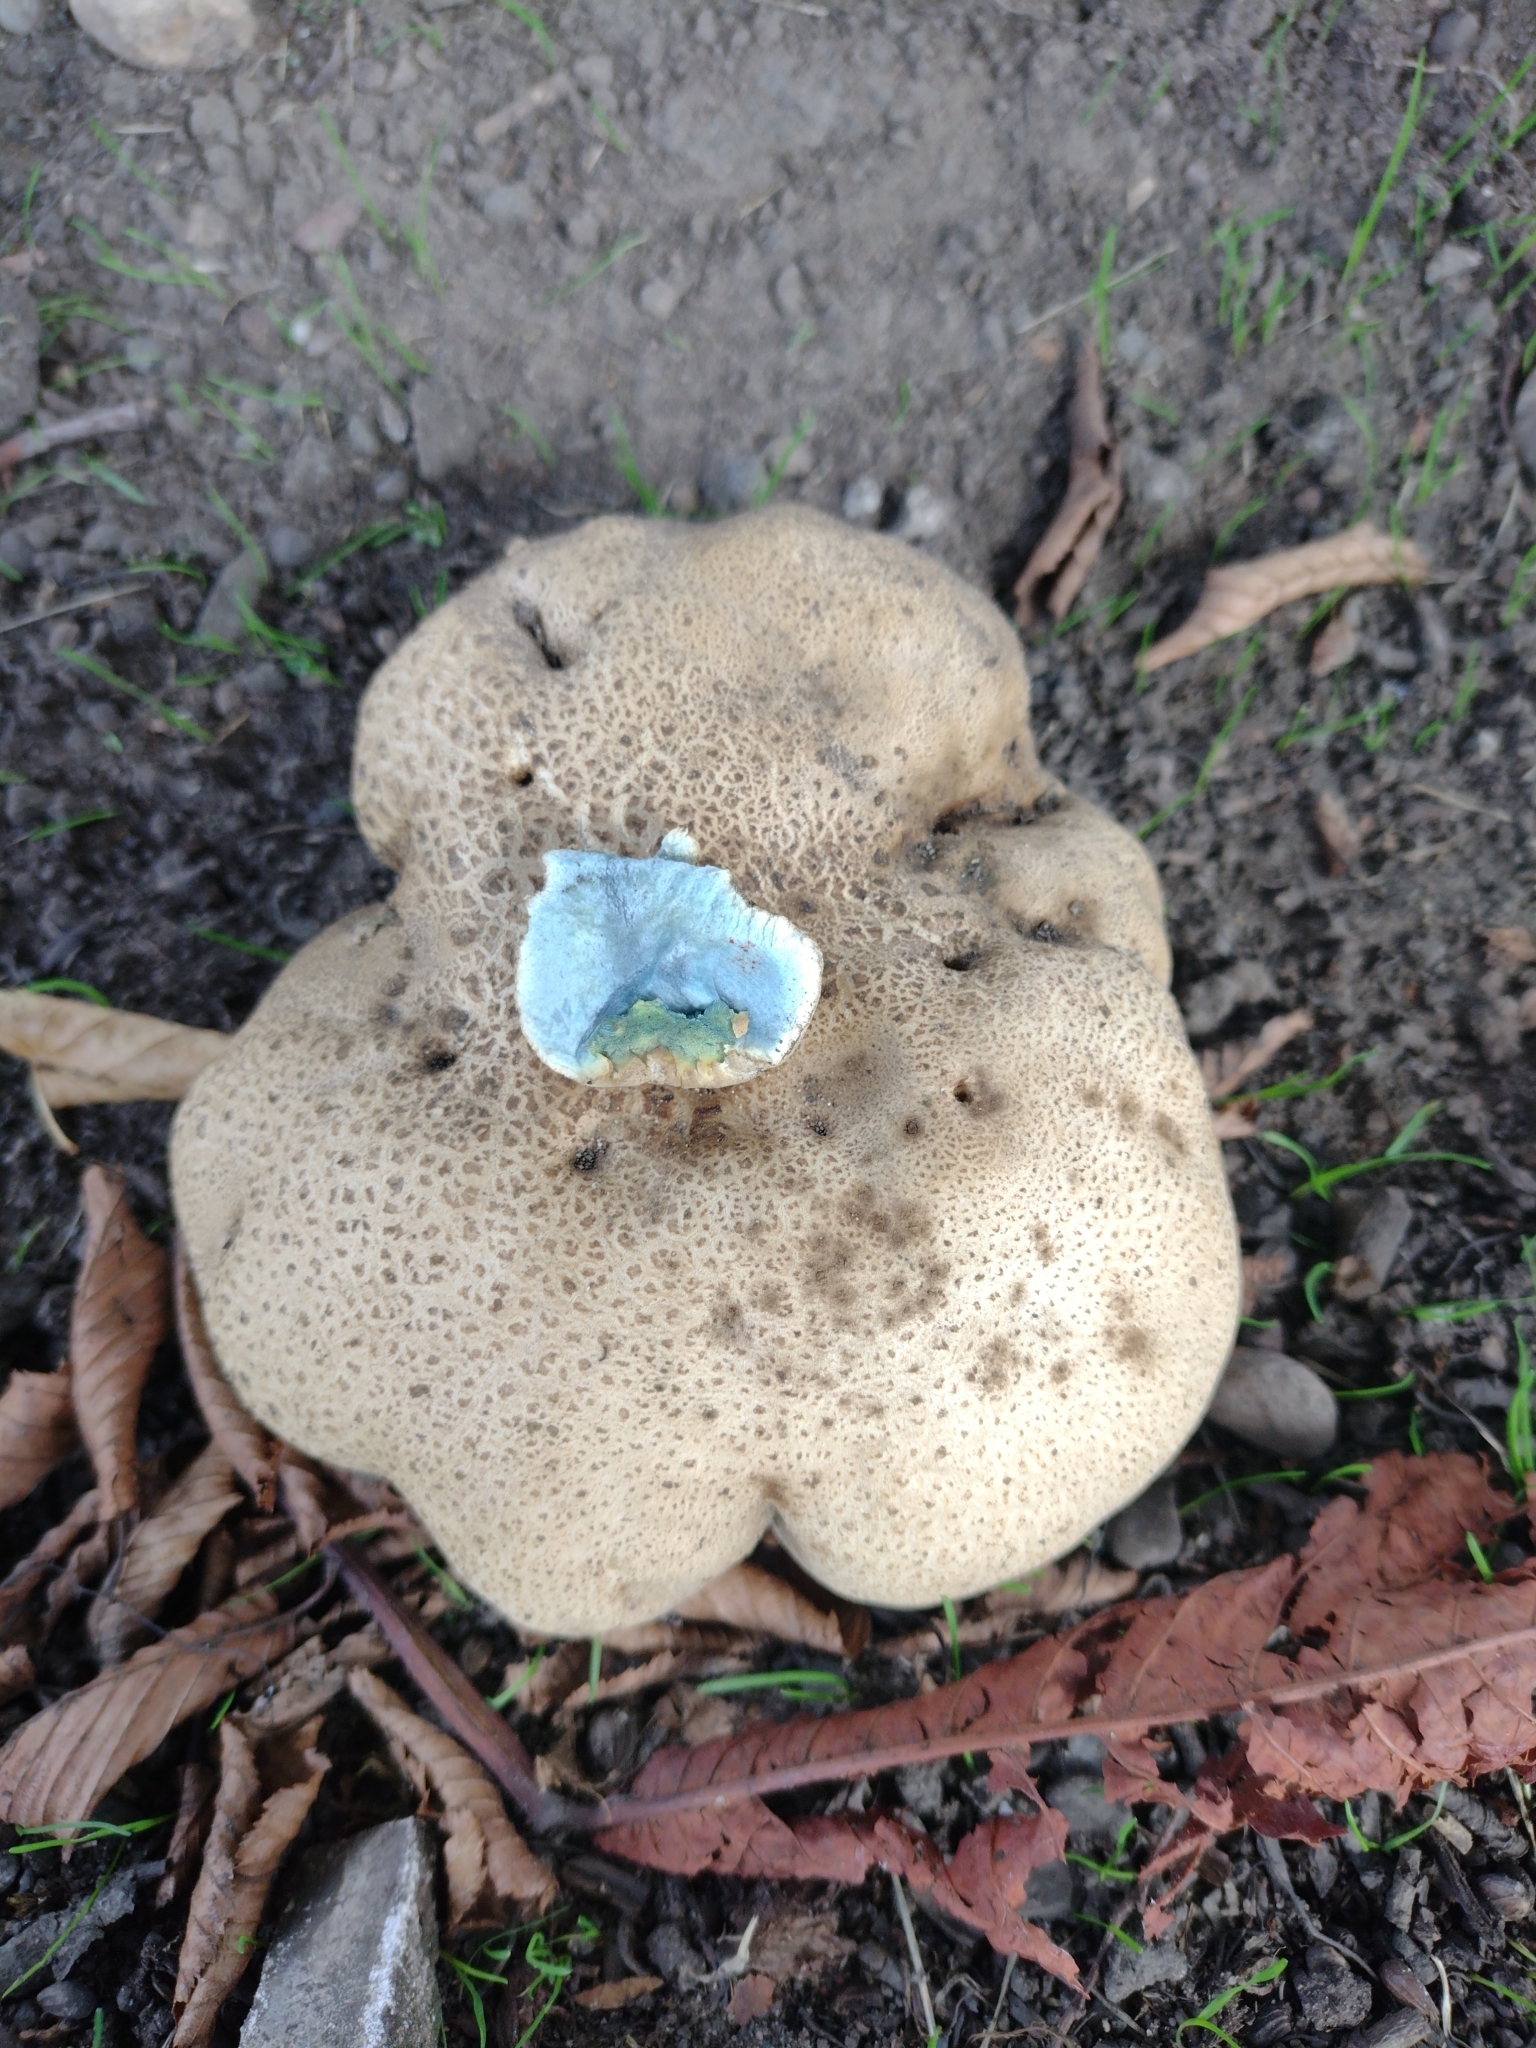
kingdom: Fungi
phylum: Basidiomycota
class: Agaricomycetes
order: Boletales
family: Boletaceae
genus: Caloboletus
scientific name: Caloboletus radicans
